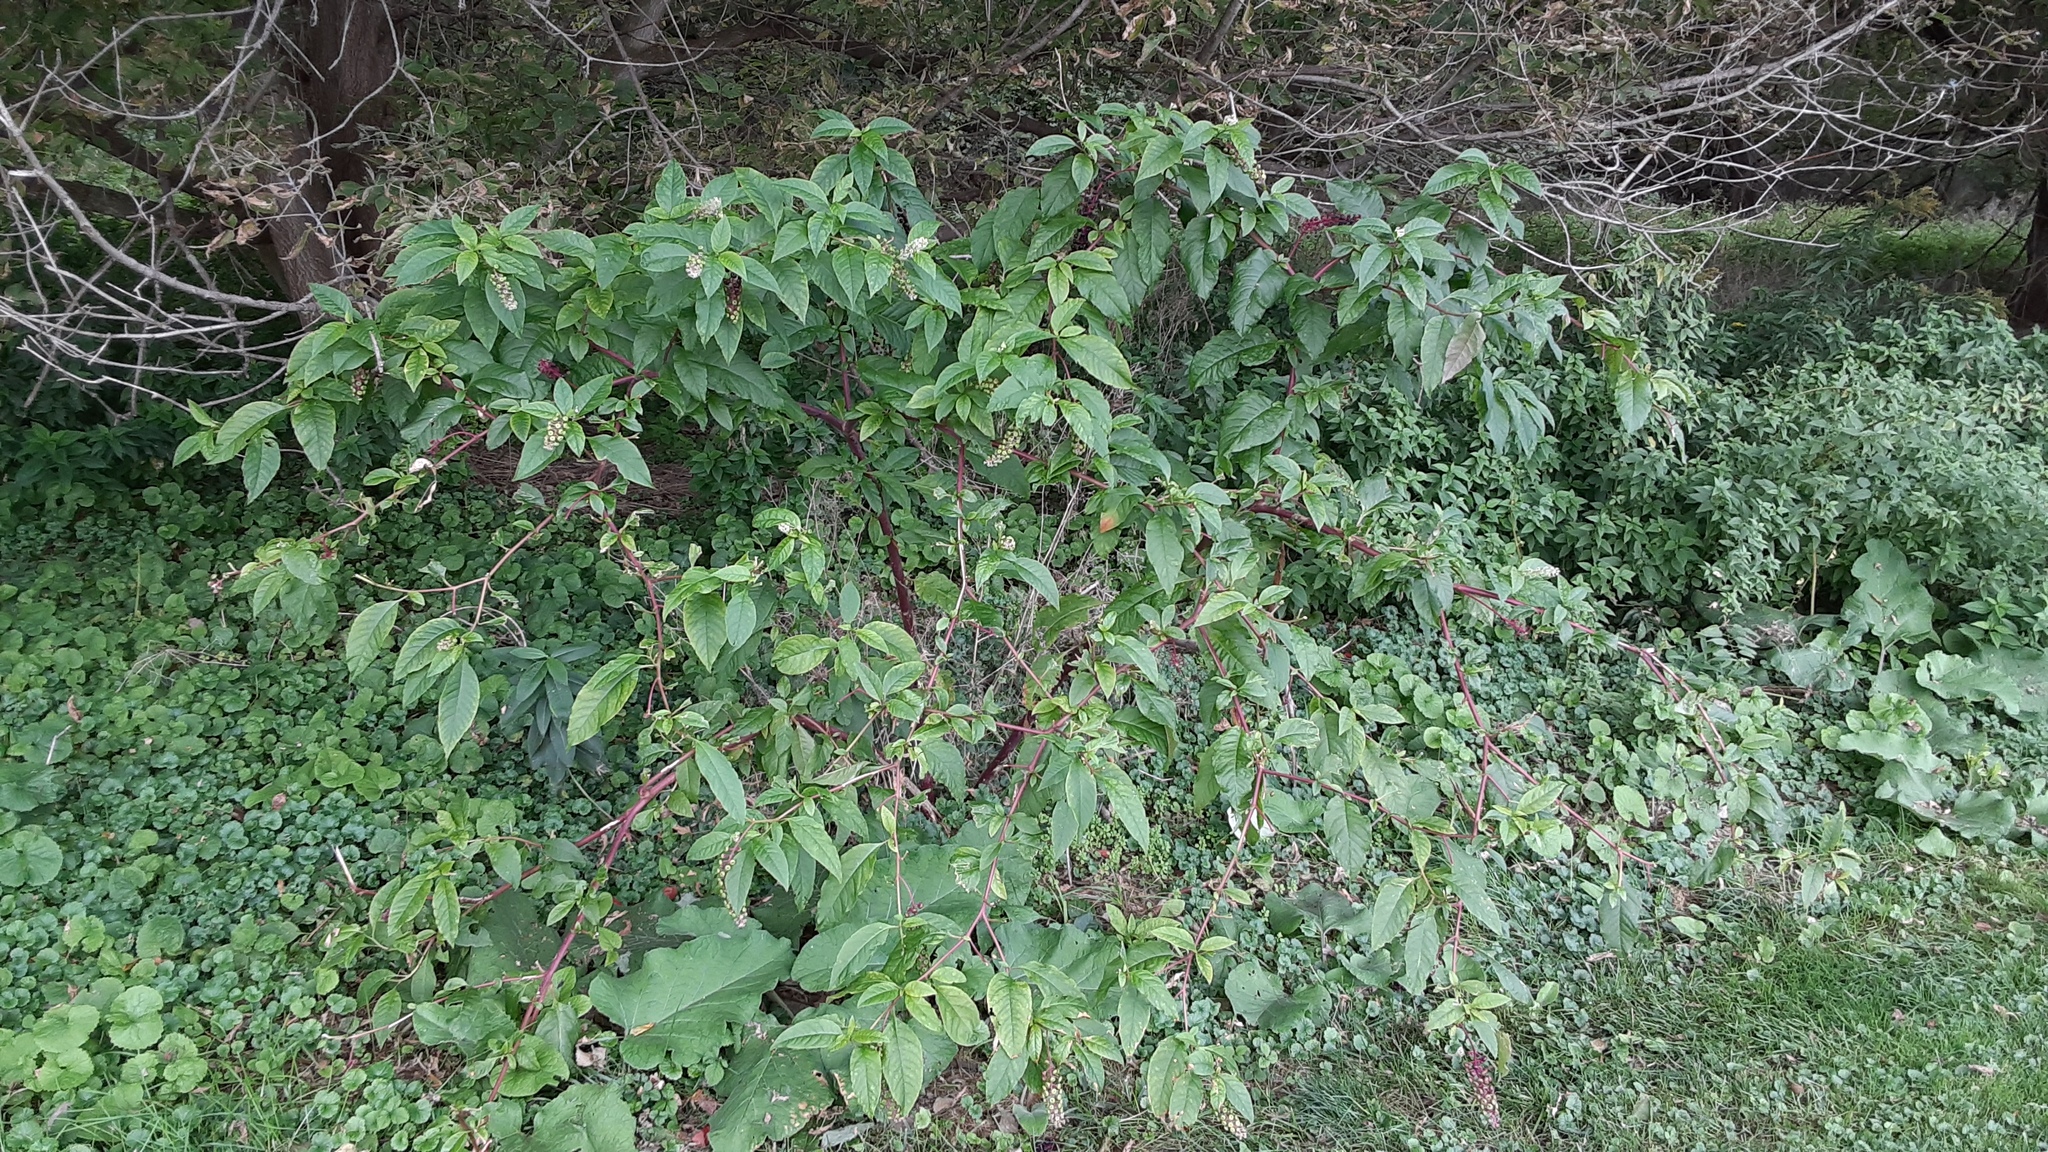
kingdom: Plantae
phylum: Tracheophyta
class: Magnoliopsida
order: Caryophyllales
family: Phytolaccaceae
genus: Phytolacca
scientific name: Phytolacca americana
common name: American pokeweed
